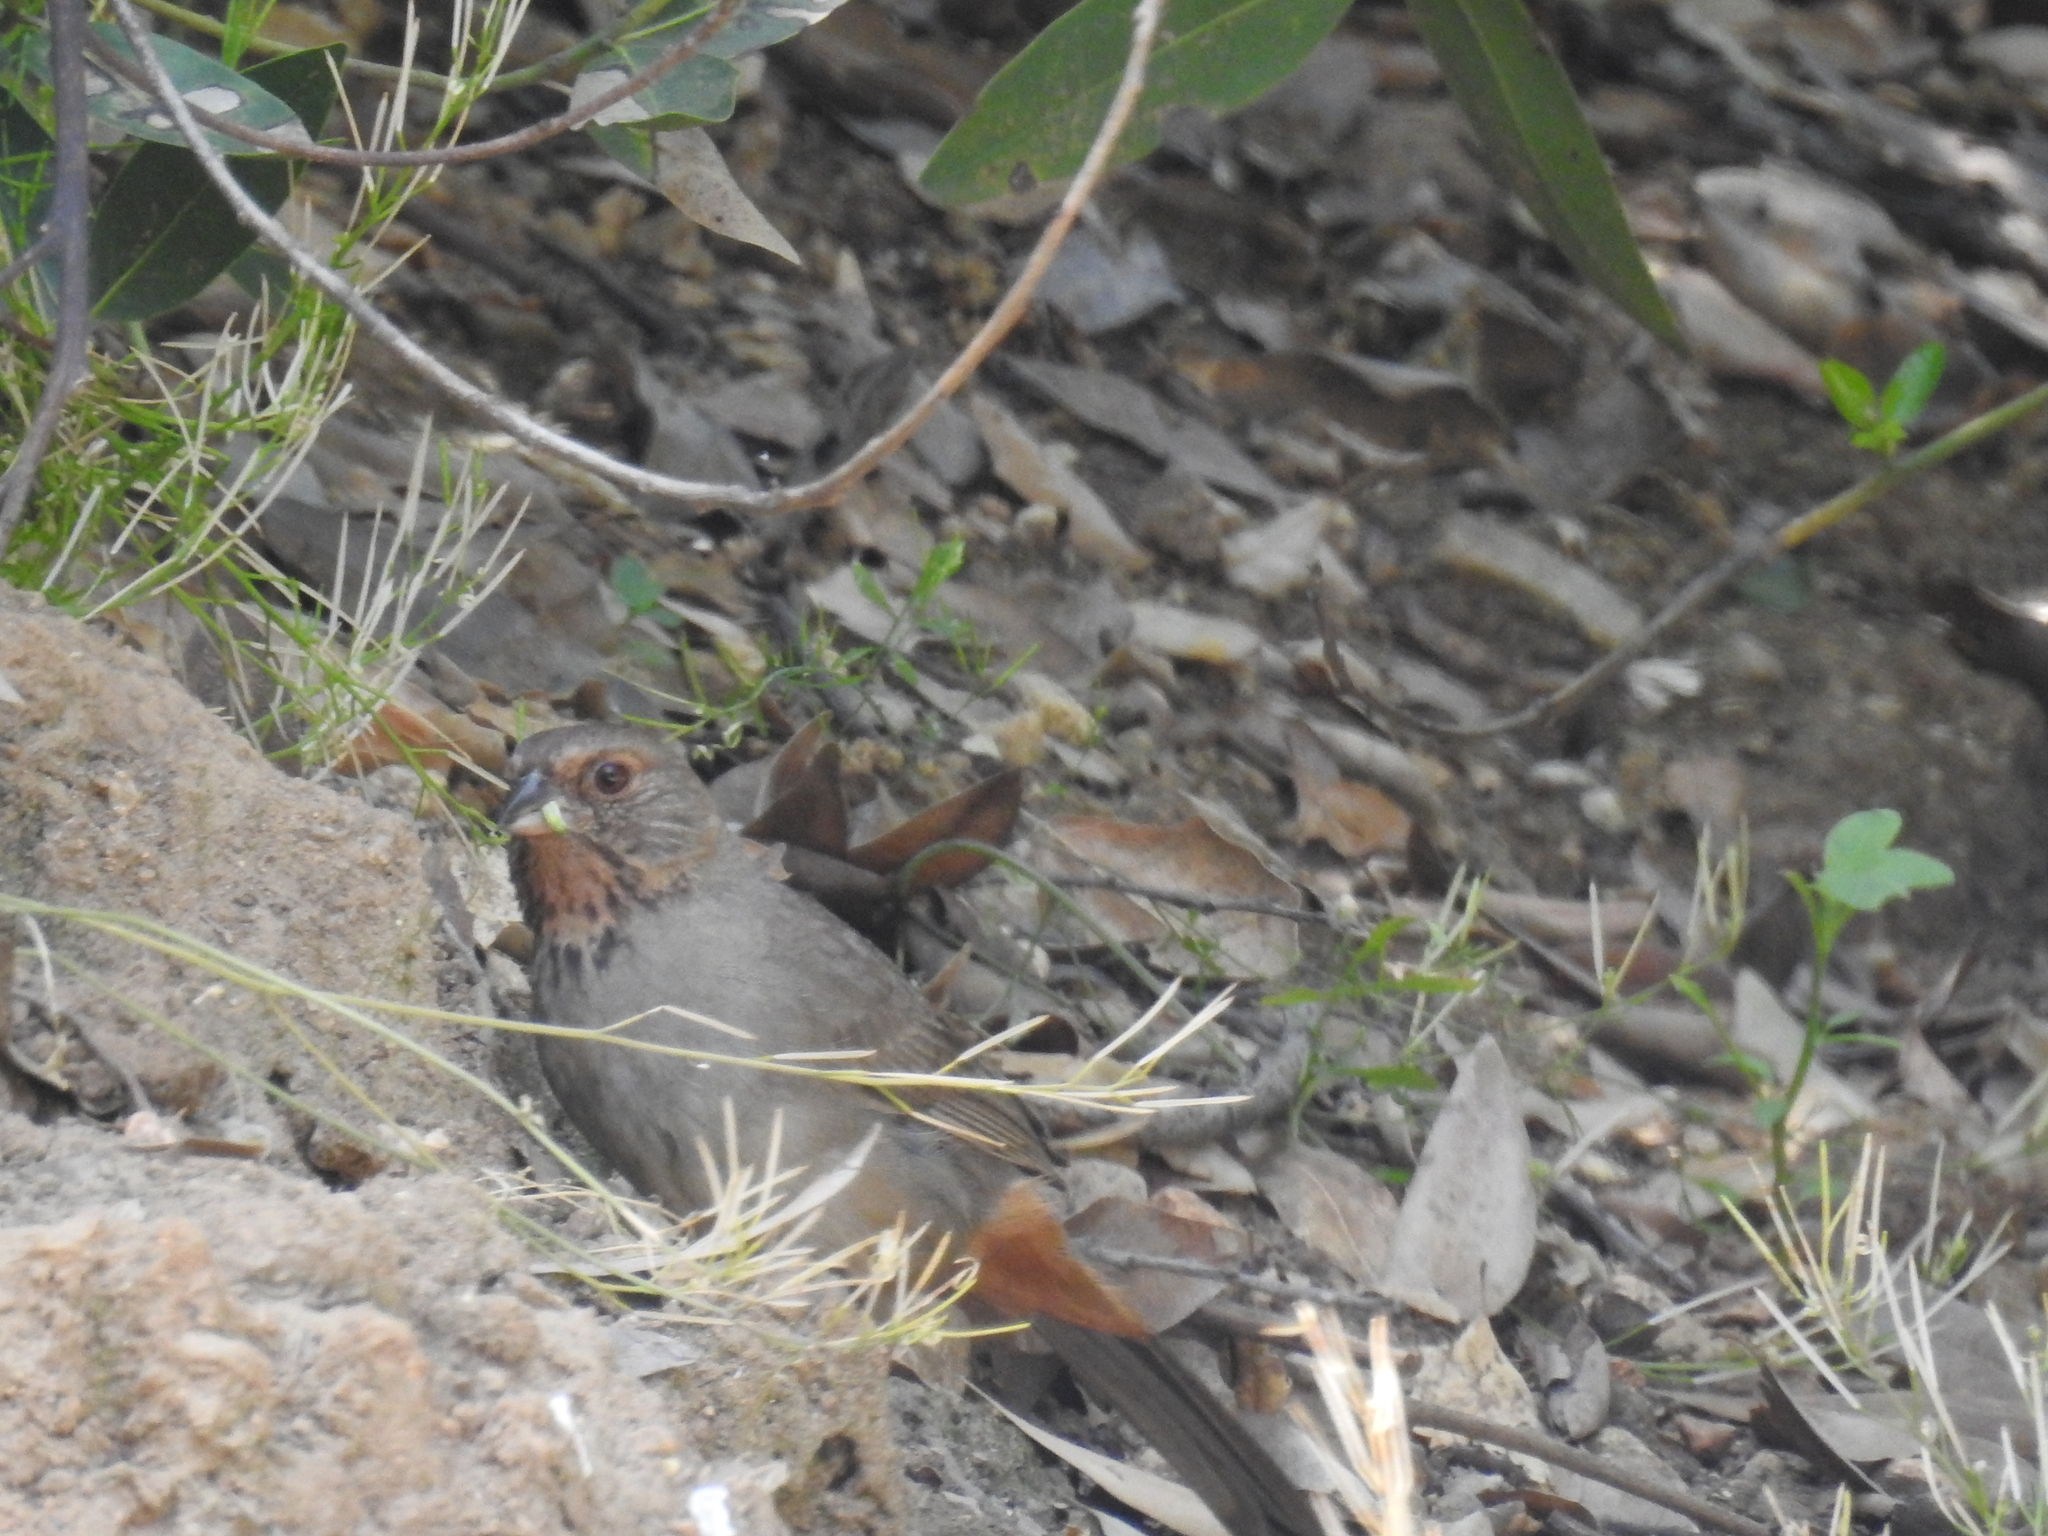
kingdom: Animalia
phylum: Chordata
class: Aves
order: Passeriformes
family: Passerellidae
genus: Melozone
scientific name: Melozone crissalis
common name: California towhee
